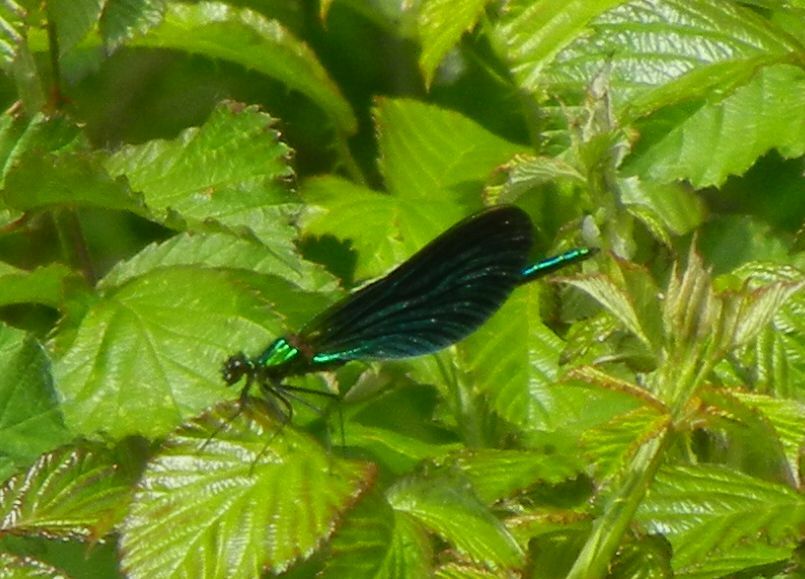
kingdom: Animalia
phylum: Arthropoda
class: Insecta
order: Odonata
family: Calopterygidae
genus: Calopteryx
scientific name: Calopteryx virgo
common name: Beautiful demoiselle
